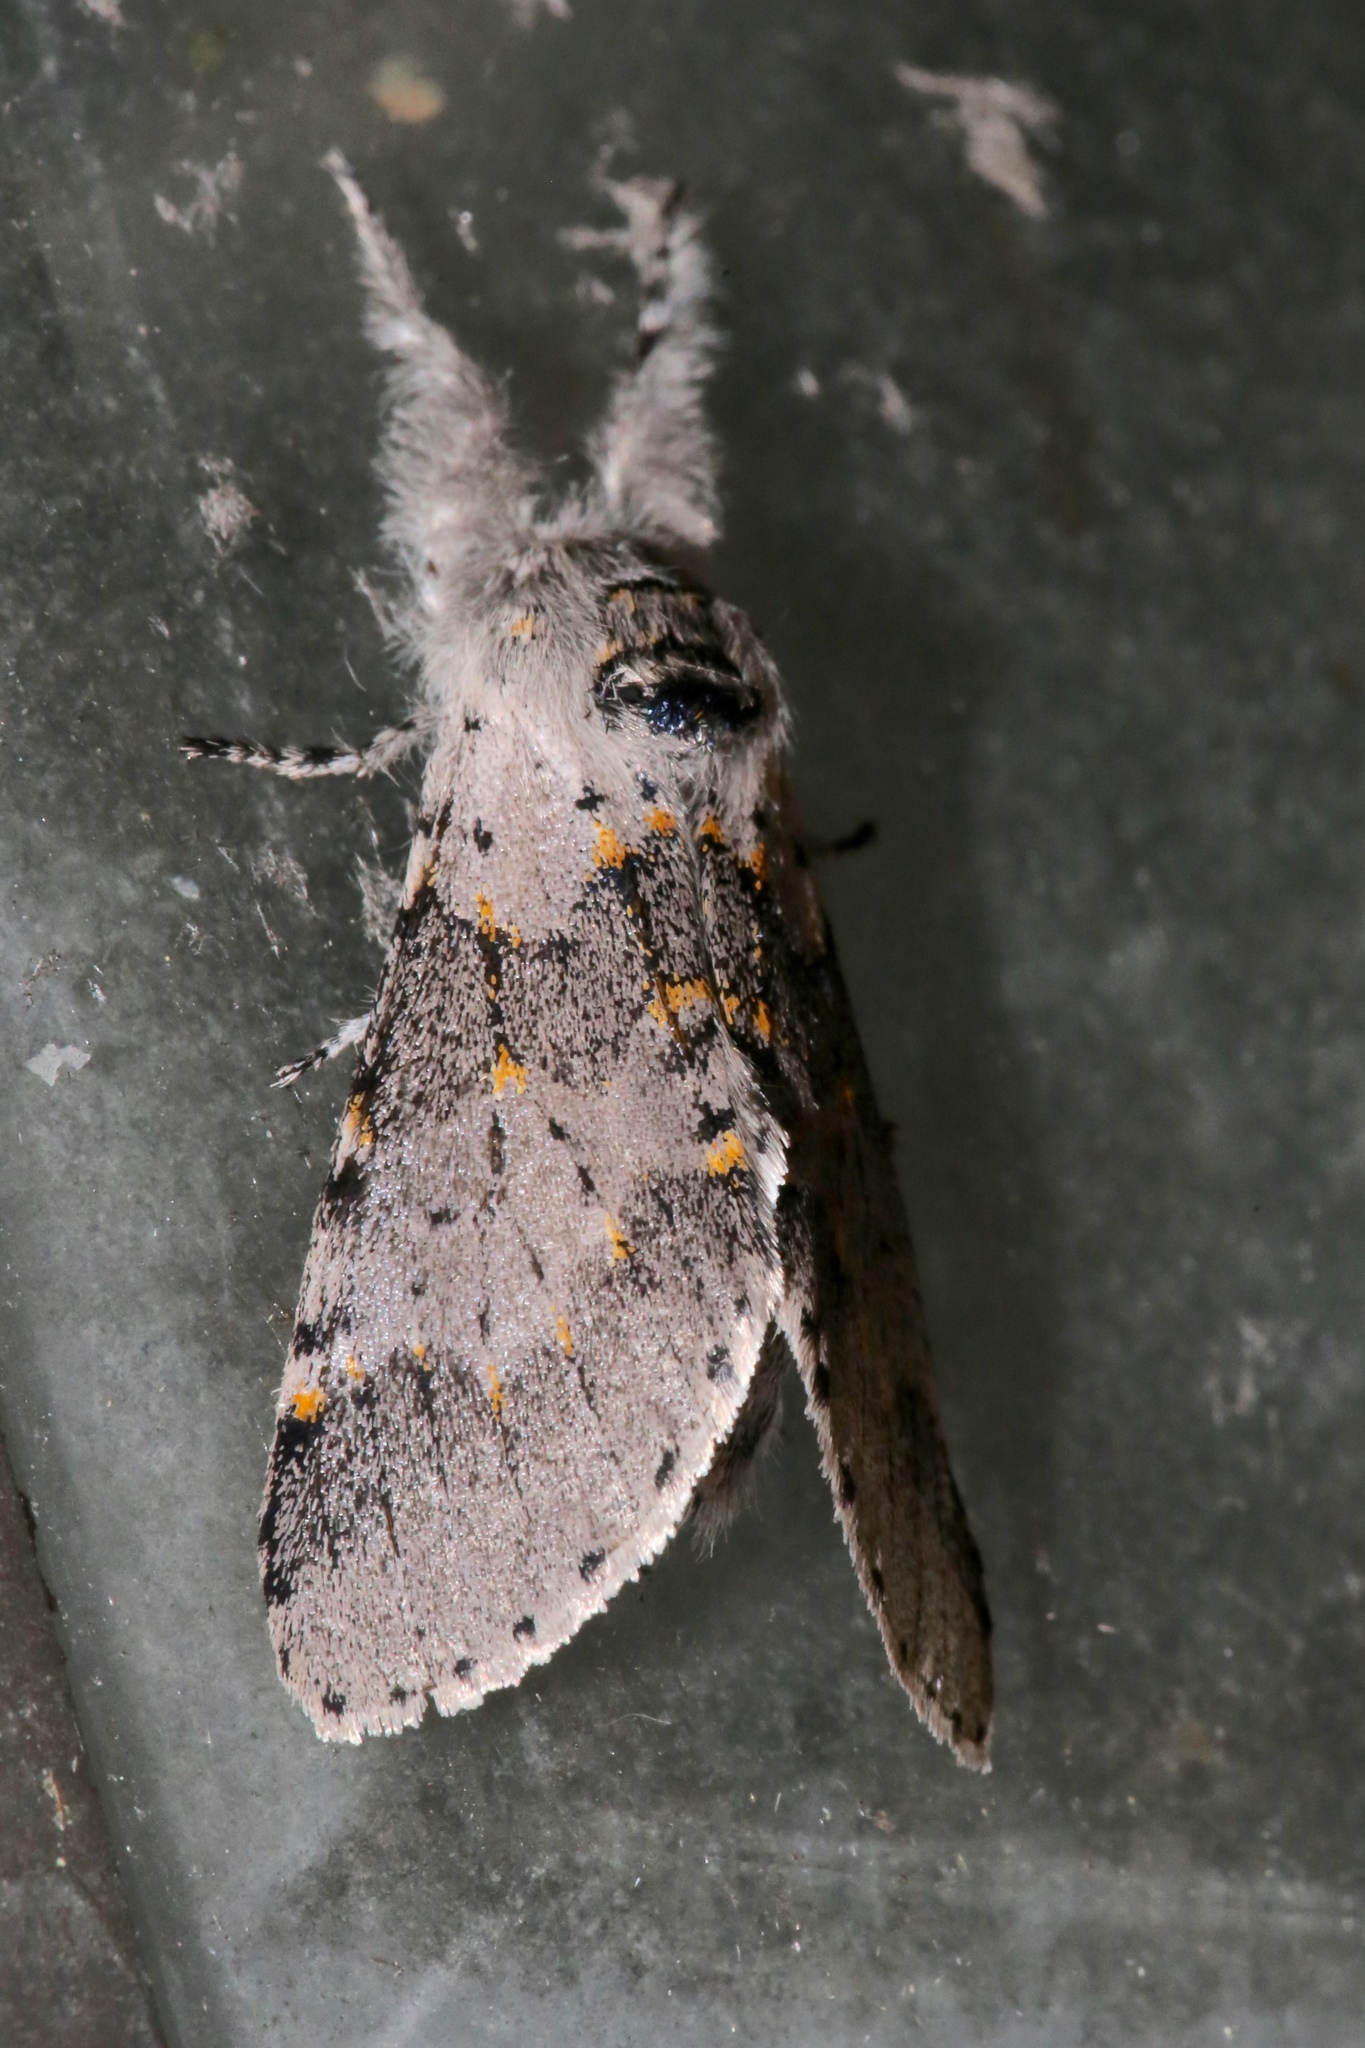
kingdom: Animalia
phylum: Arthropoda
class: Insecta
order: Lepidoptera
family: Notodontidae
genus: Furcula
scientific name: Furcula cinerea
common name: Gray furcula
